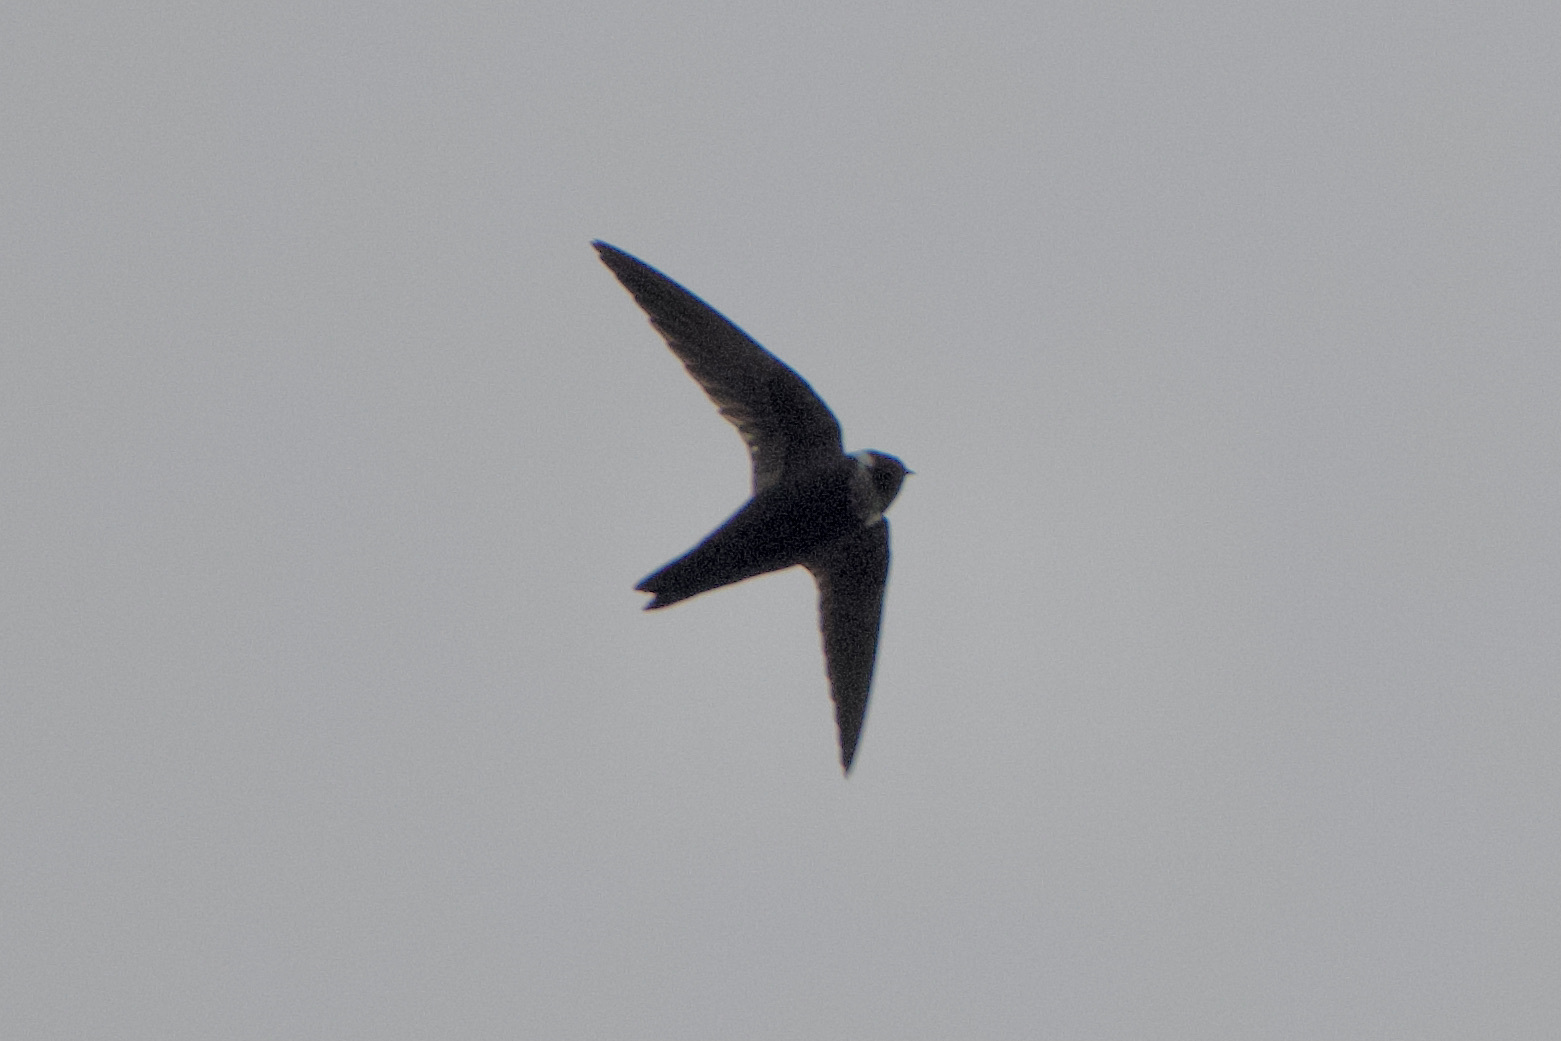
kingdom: Animalia
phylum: Chordata
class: Aves
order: Apodiformes
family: Apodidae
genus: Streptoprocne
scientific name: Streptoprocne zonaris
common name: White-collared swift
